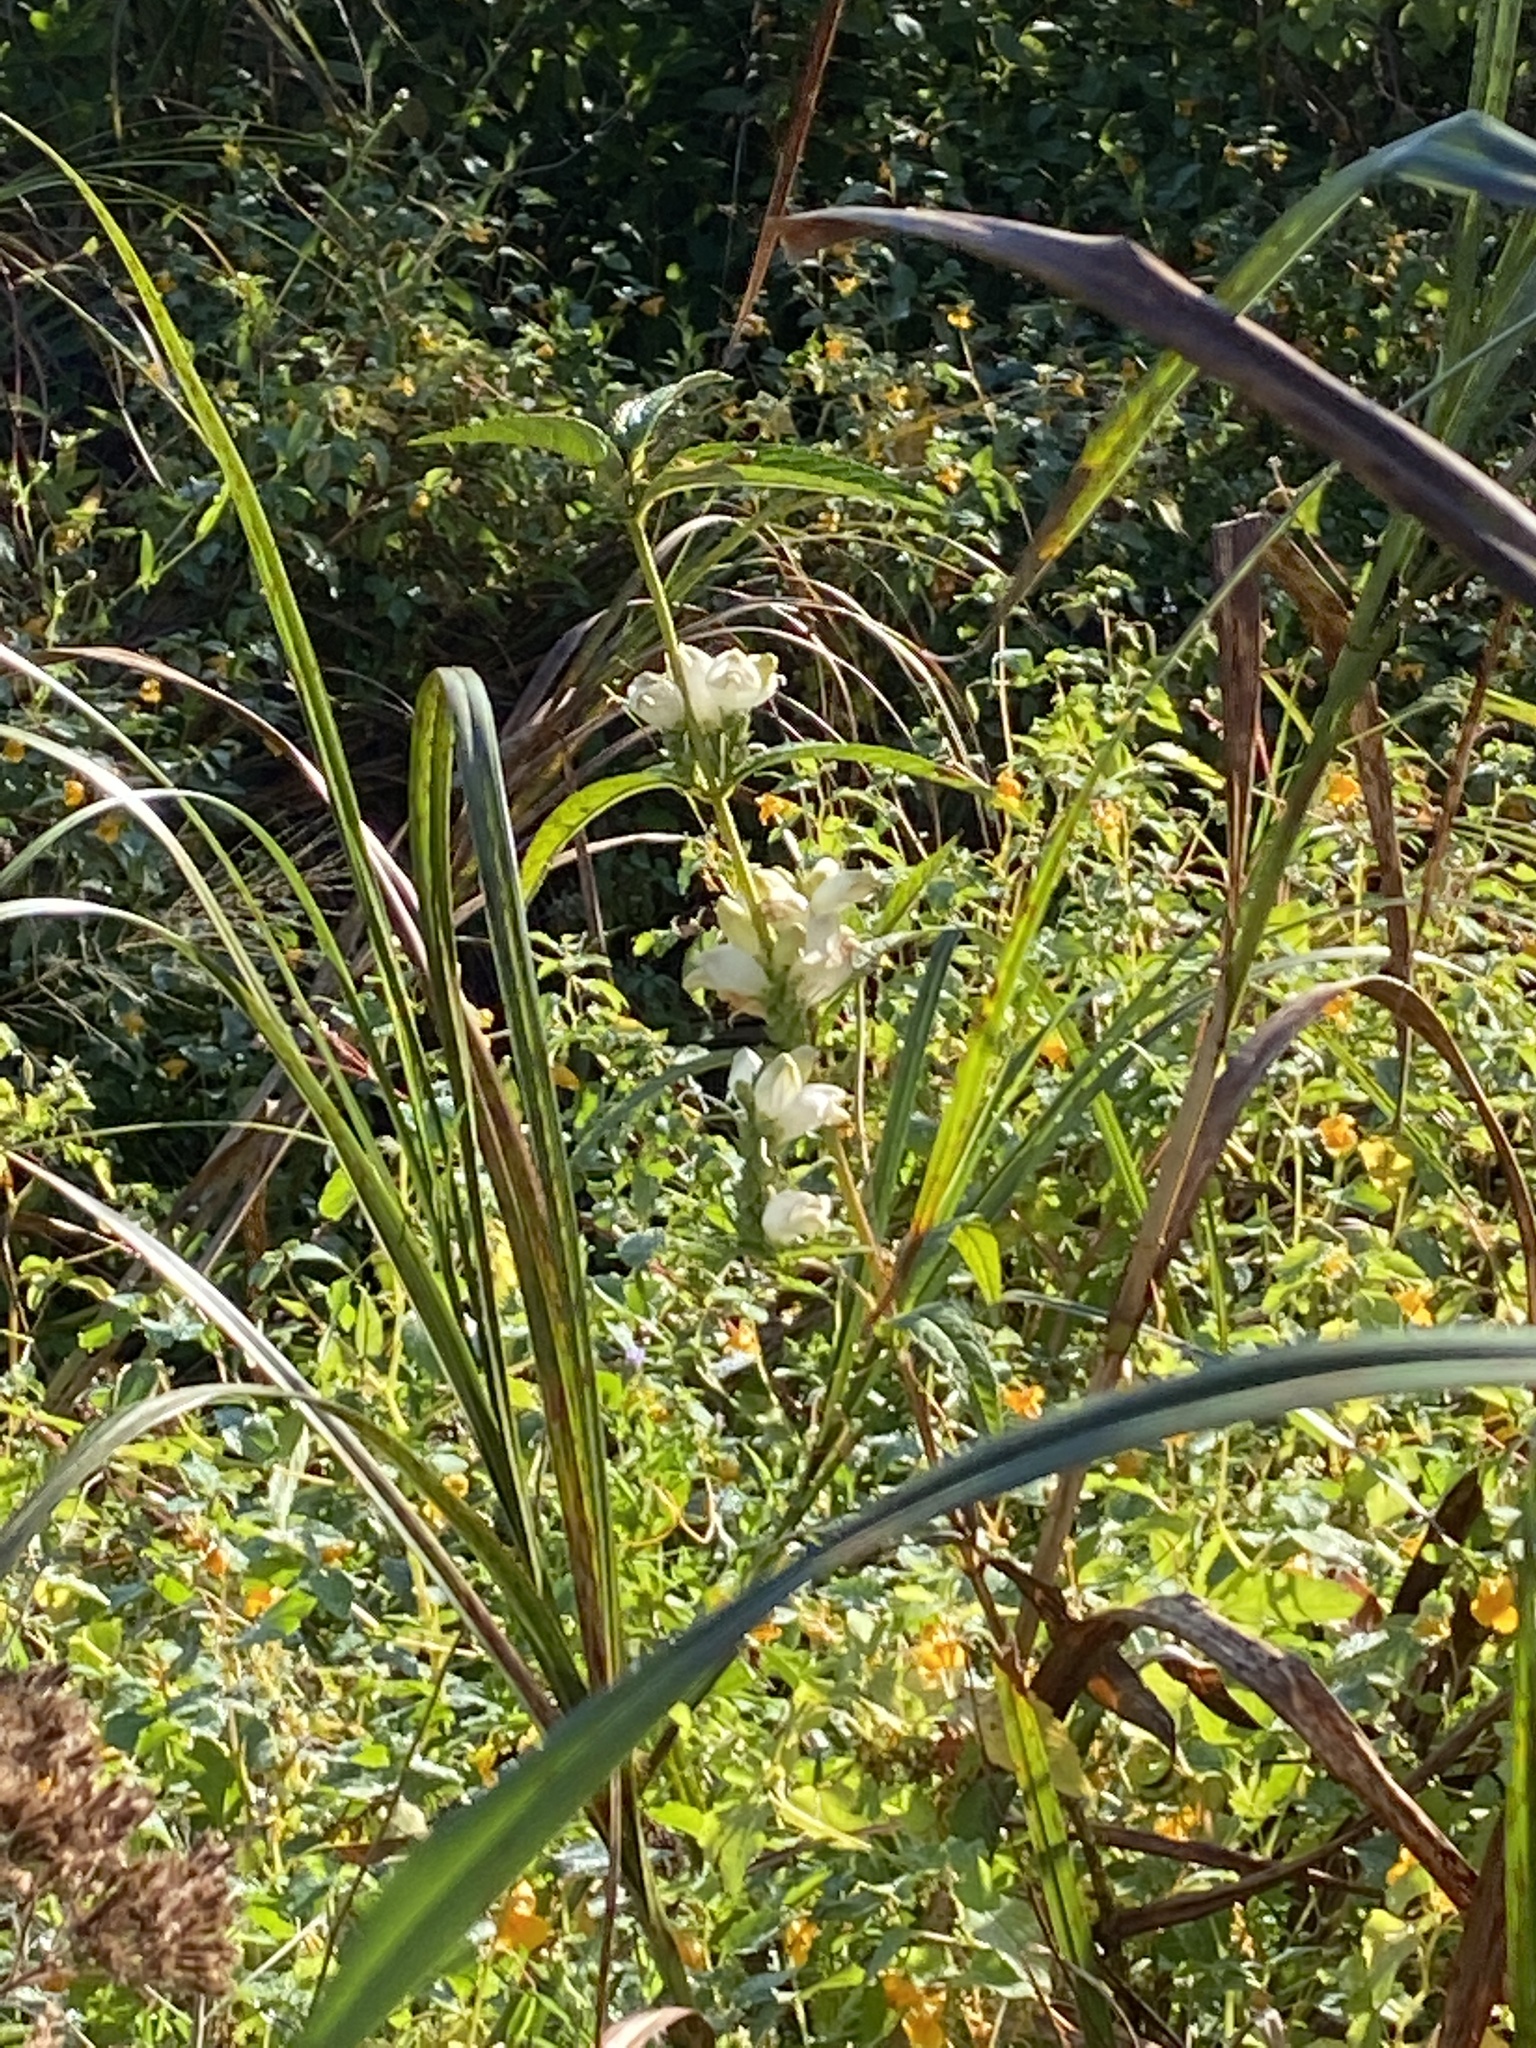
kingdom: Plantae
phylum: Tracheophyta
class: Magnoliopsida
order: Lamiales
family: Plantaginaceae
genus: Chelone
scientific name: Chelone glabra
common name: Snakehead
